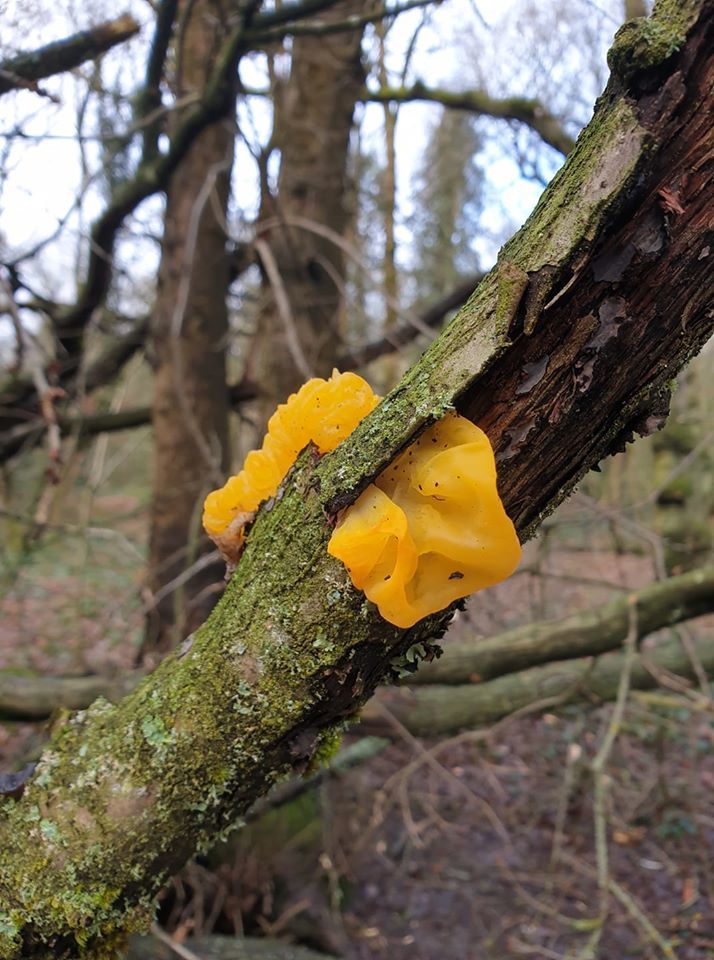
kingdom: Fungi
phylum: Basidiomycota
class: Tremellomycetes
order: Tremellales
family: Tremellaceae
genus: Tremella
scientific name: Tremella mesenterica
